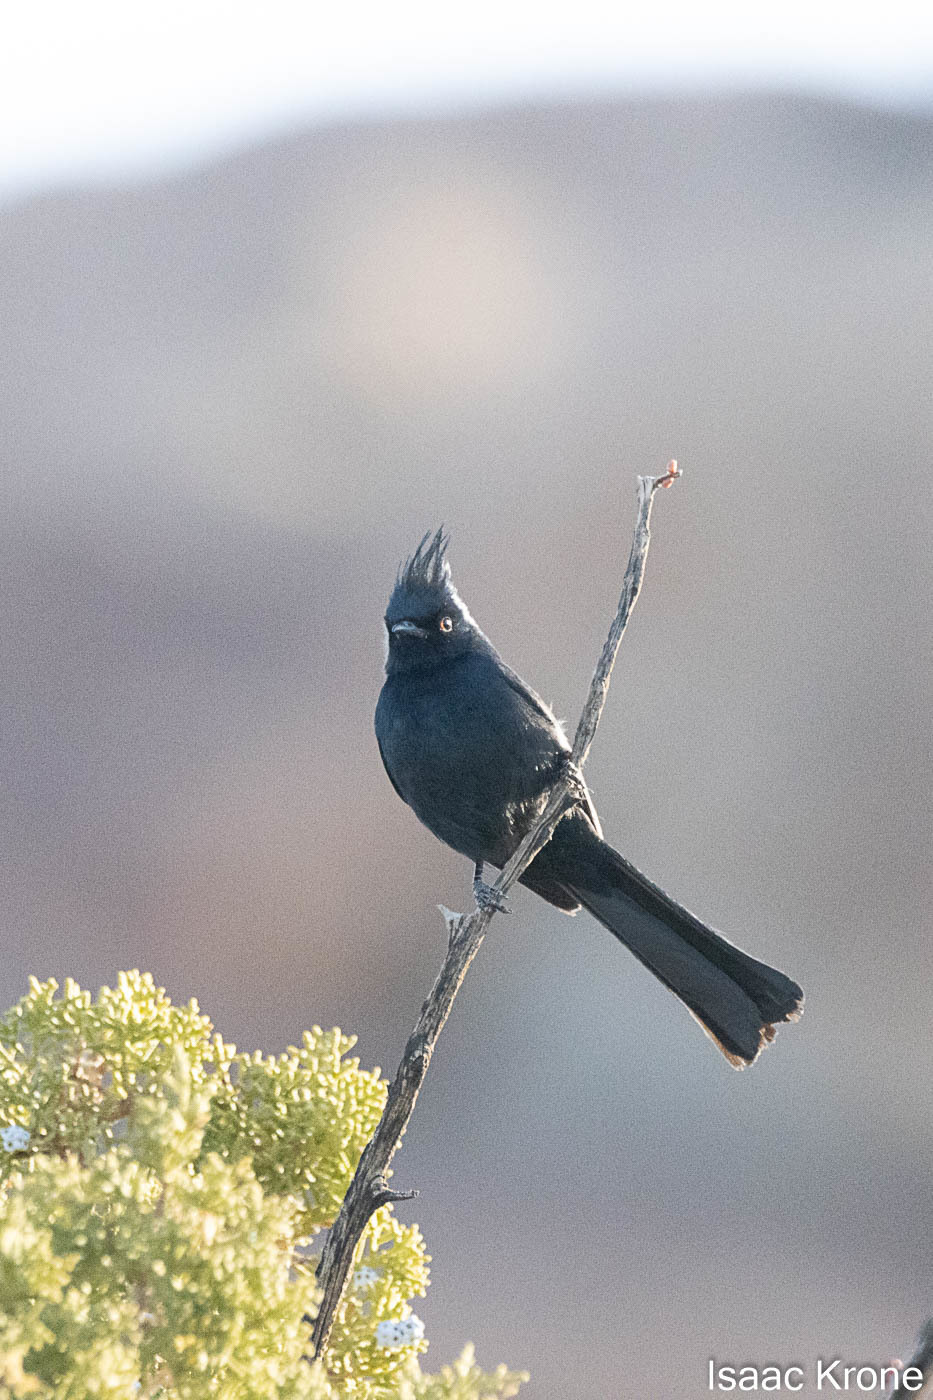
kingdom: Animalia
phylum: Chordata
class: Aves
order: Passeriformes
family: Ptilogonatidae
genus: Phainopepla
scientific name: Phainopepla nitens
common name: Phainopepla
